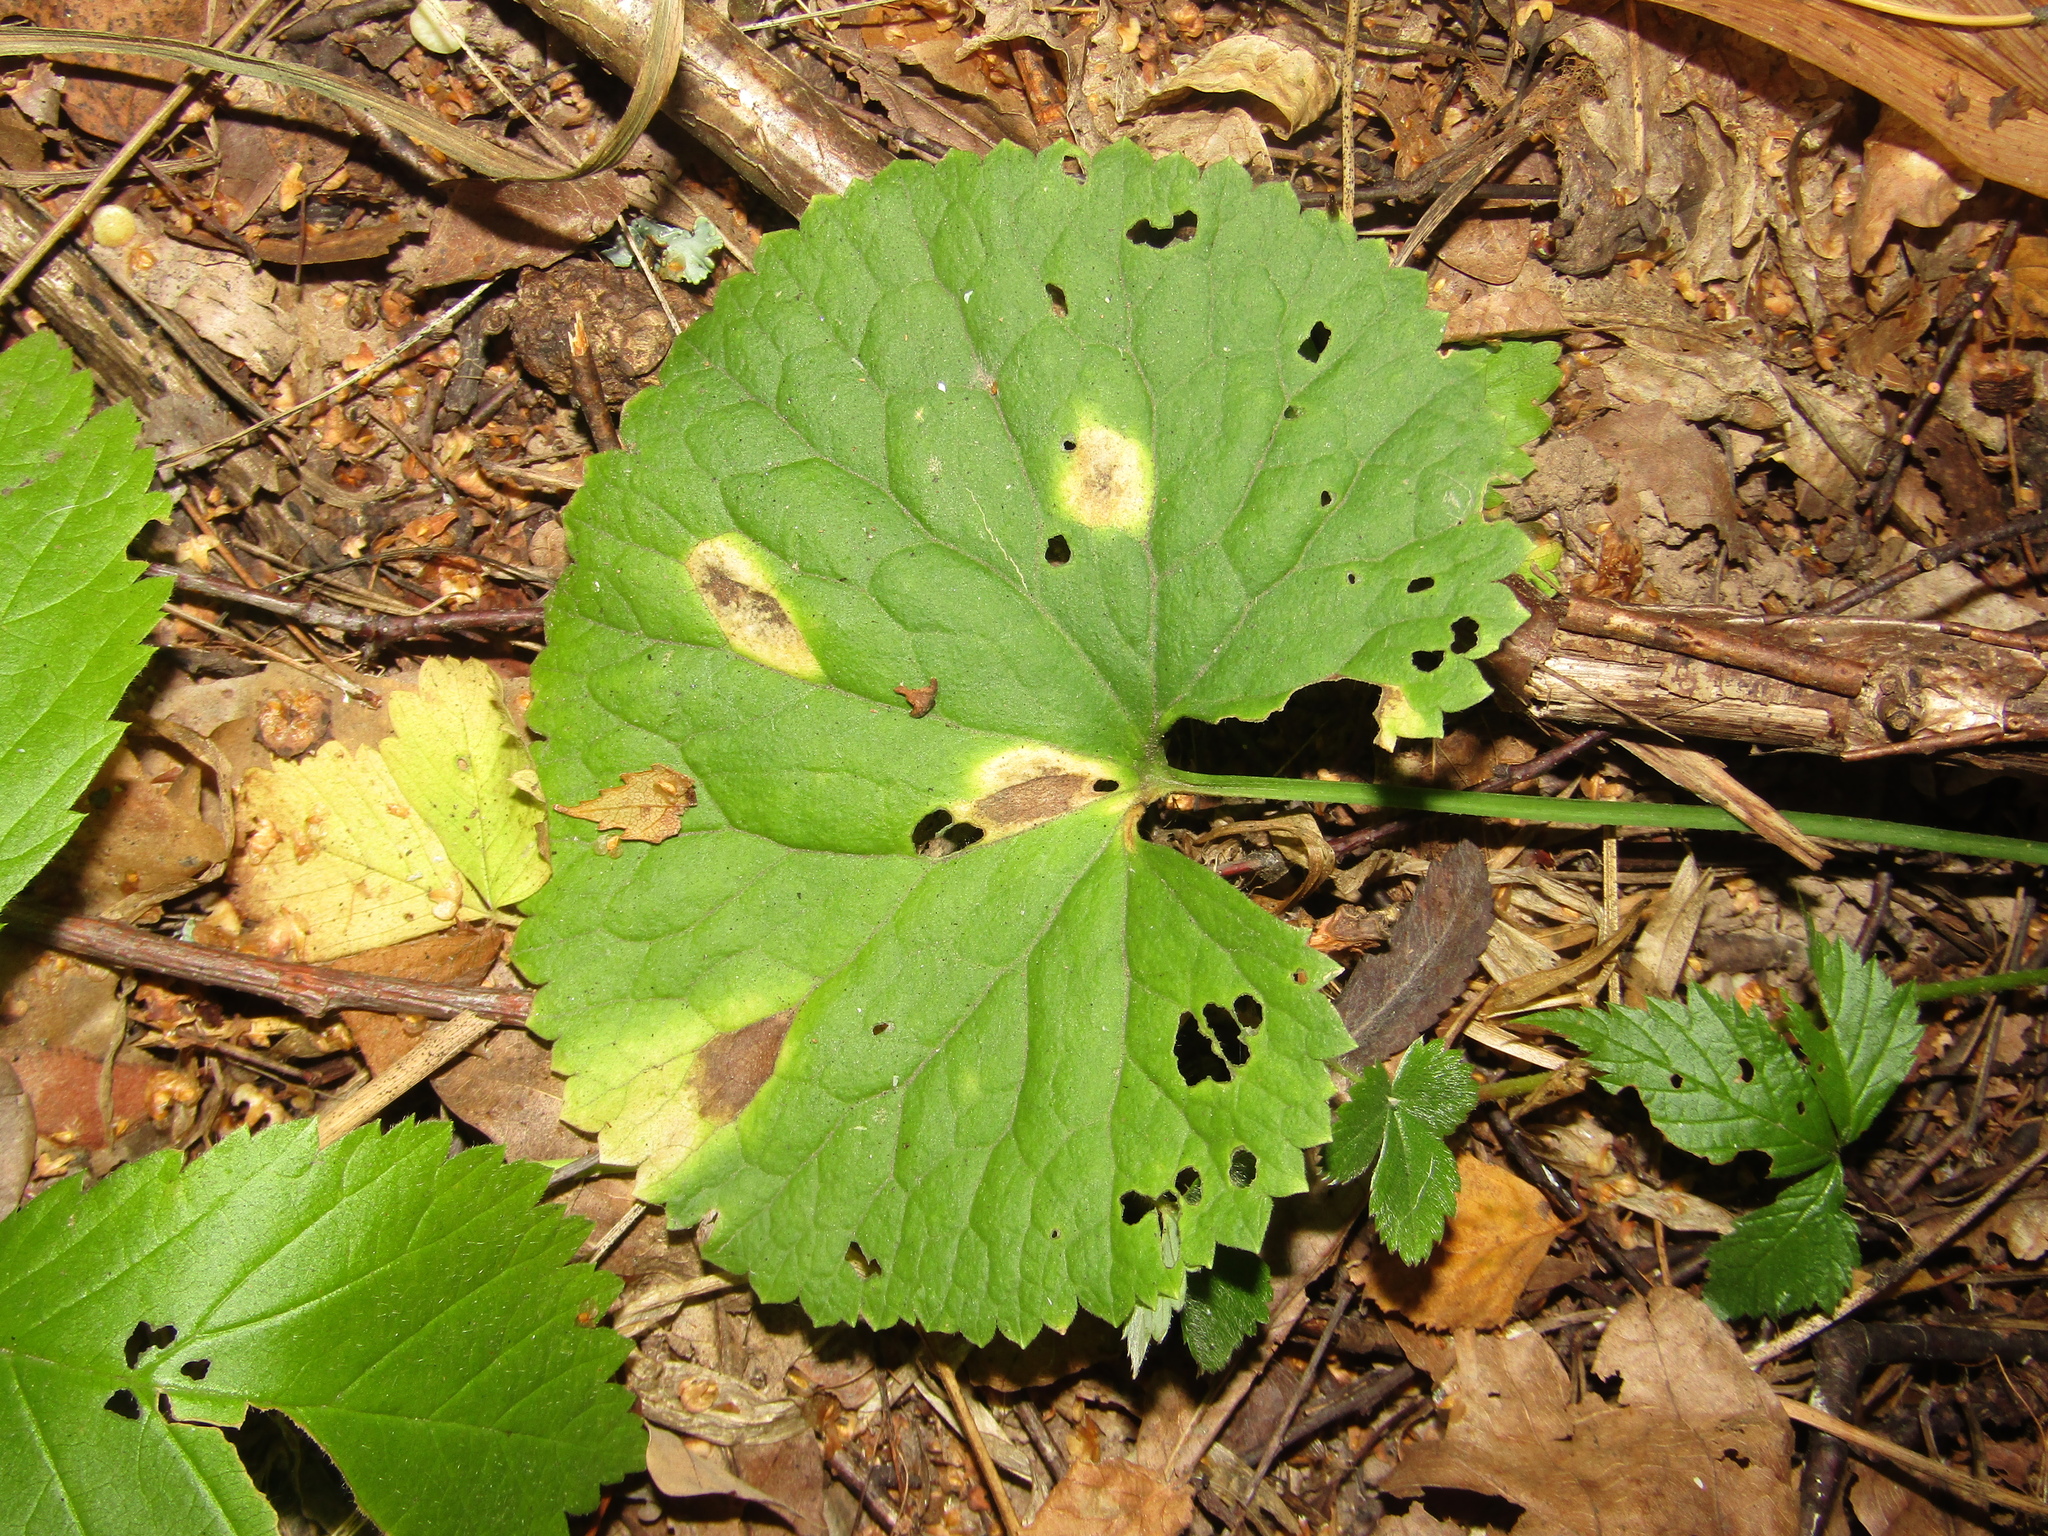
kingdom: Plantae
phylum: Tracheophyta
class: Magnoliopsida
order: Ranunculales
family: Ranunculaceae
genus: Ranunculus
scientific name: Ranunculus cassubicus
